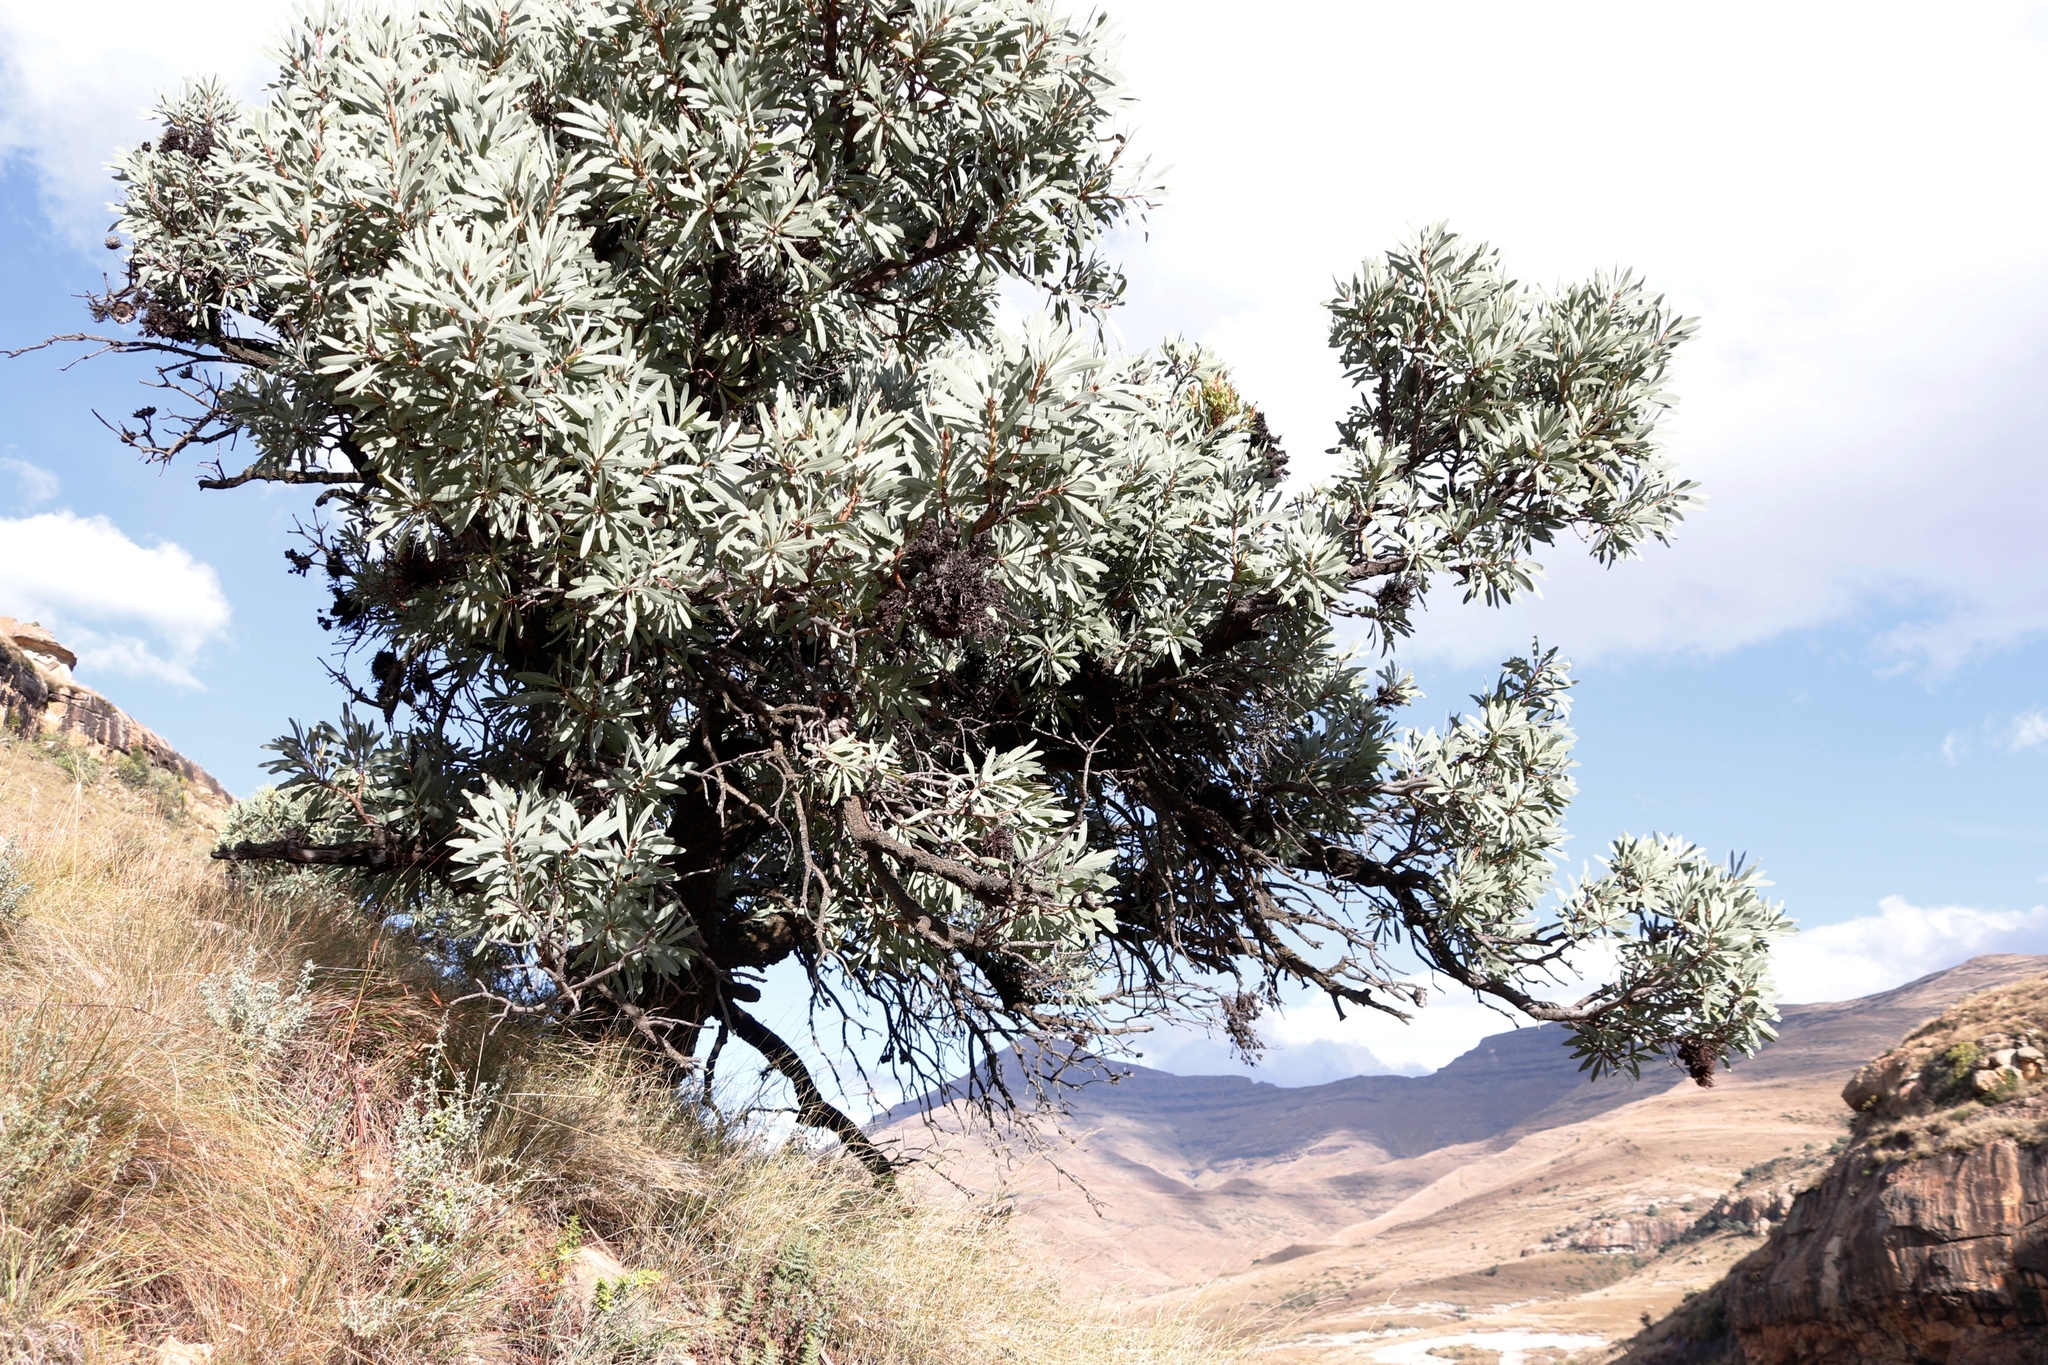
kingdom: Plantae
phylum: Tracheophyta
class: Magnoliopsida
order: Proteales
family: Proteaceae
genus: Protea
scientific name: Protea caffra
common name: Common sugarbush
